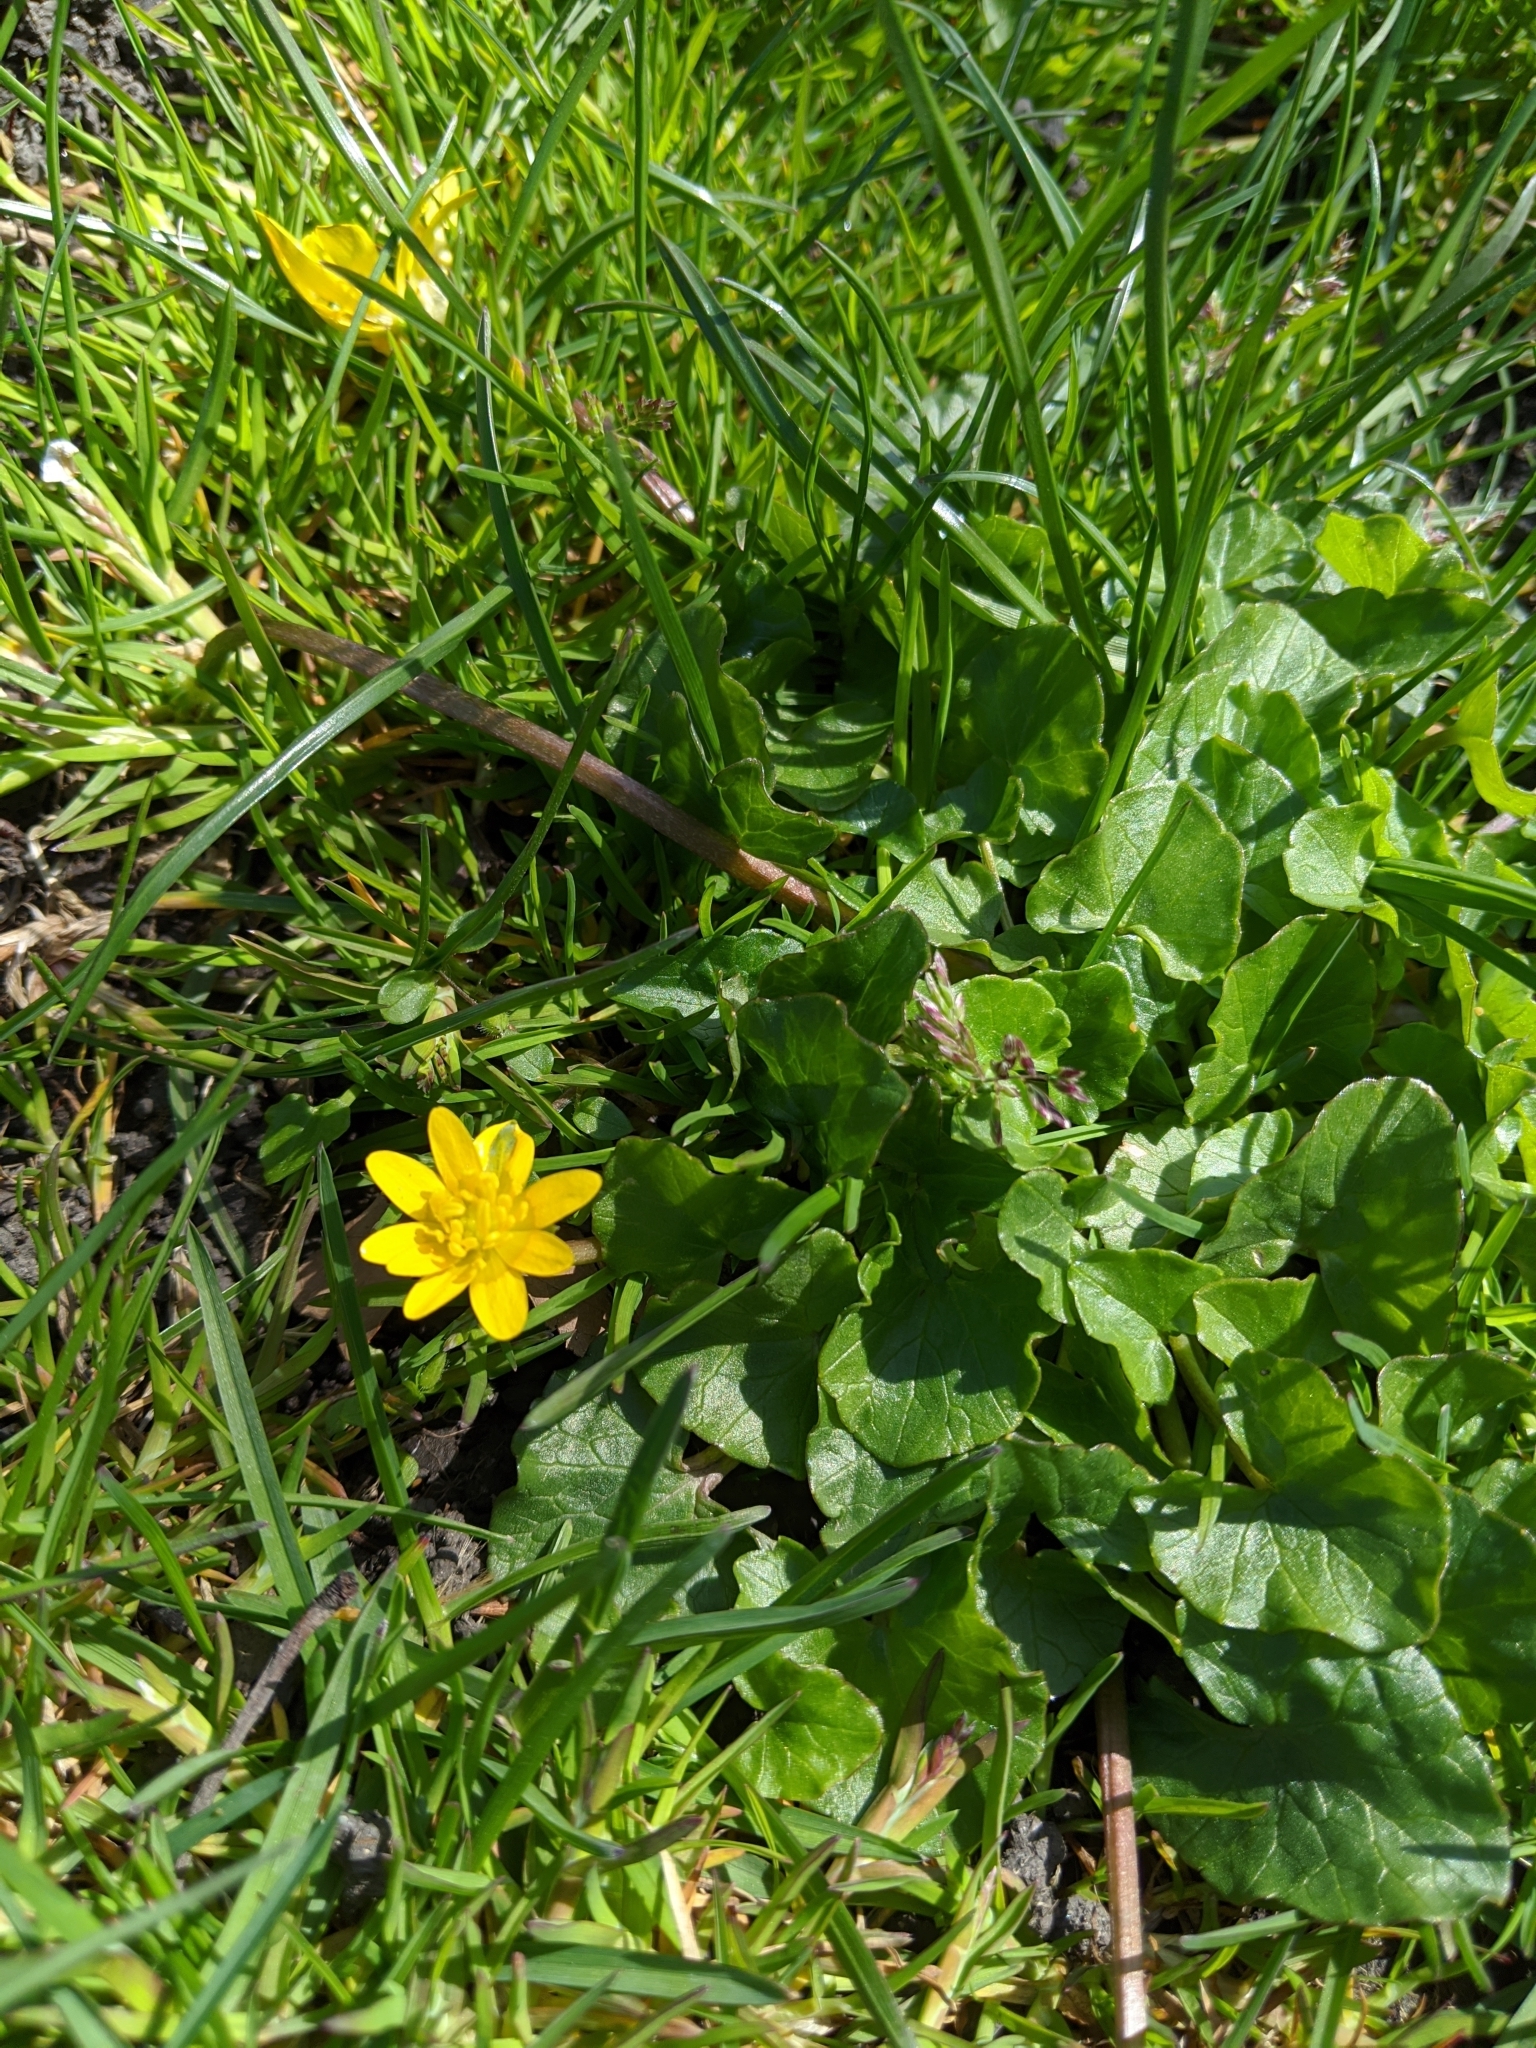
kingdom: Plantae
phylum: Tracheophyta
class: Magnoliopsida
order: Ranunculales
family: Ranunculaceae
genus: Ficaria
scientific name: Ficaria verna
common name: Lesser celandine
